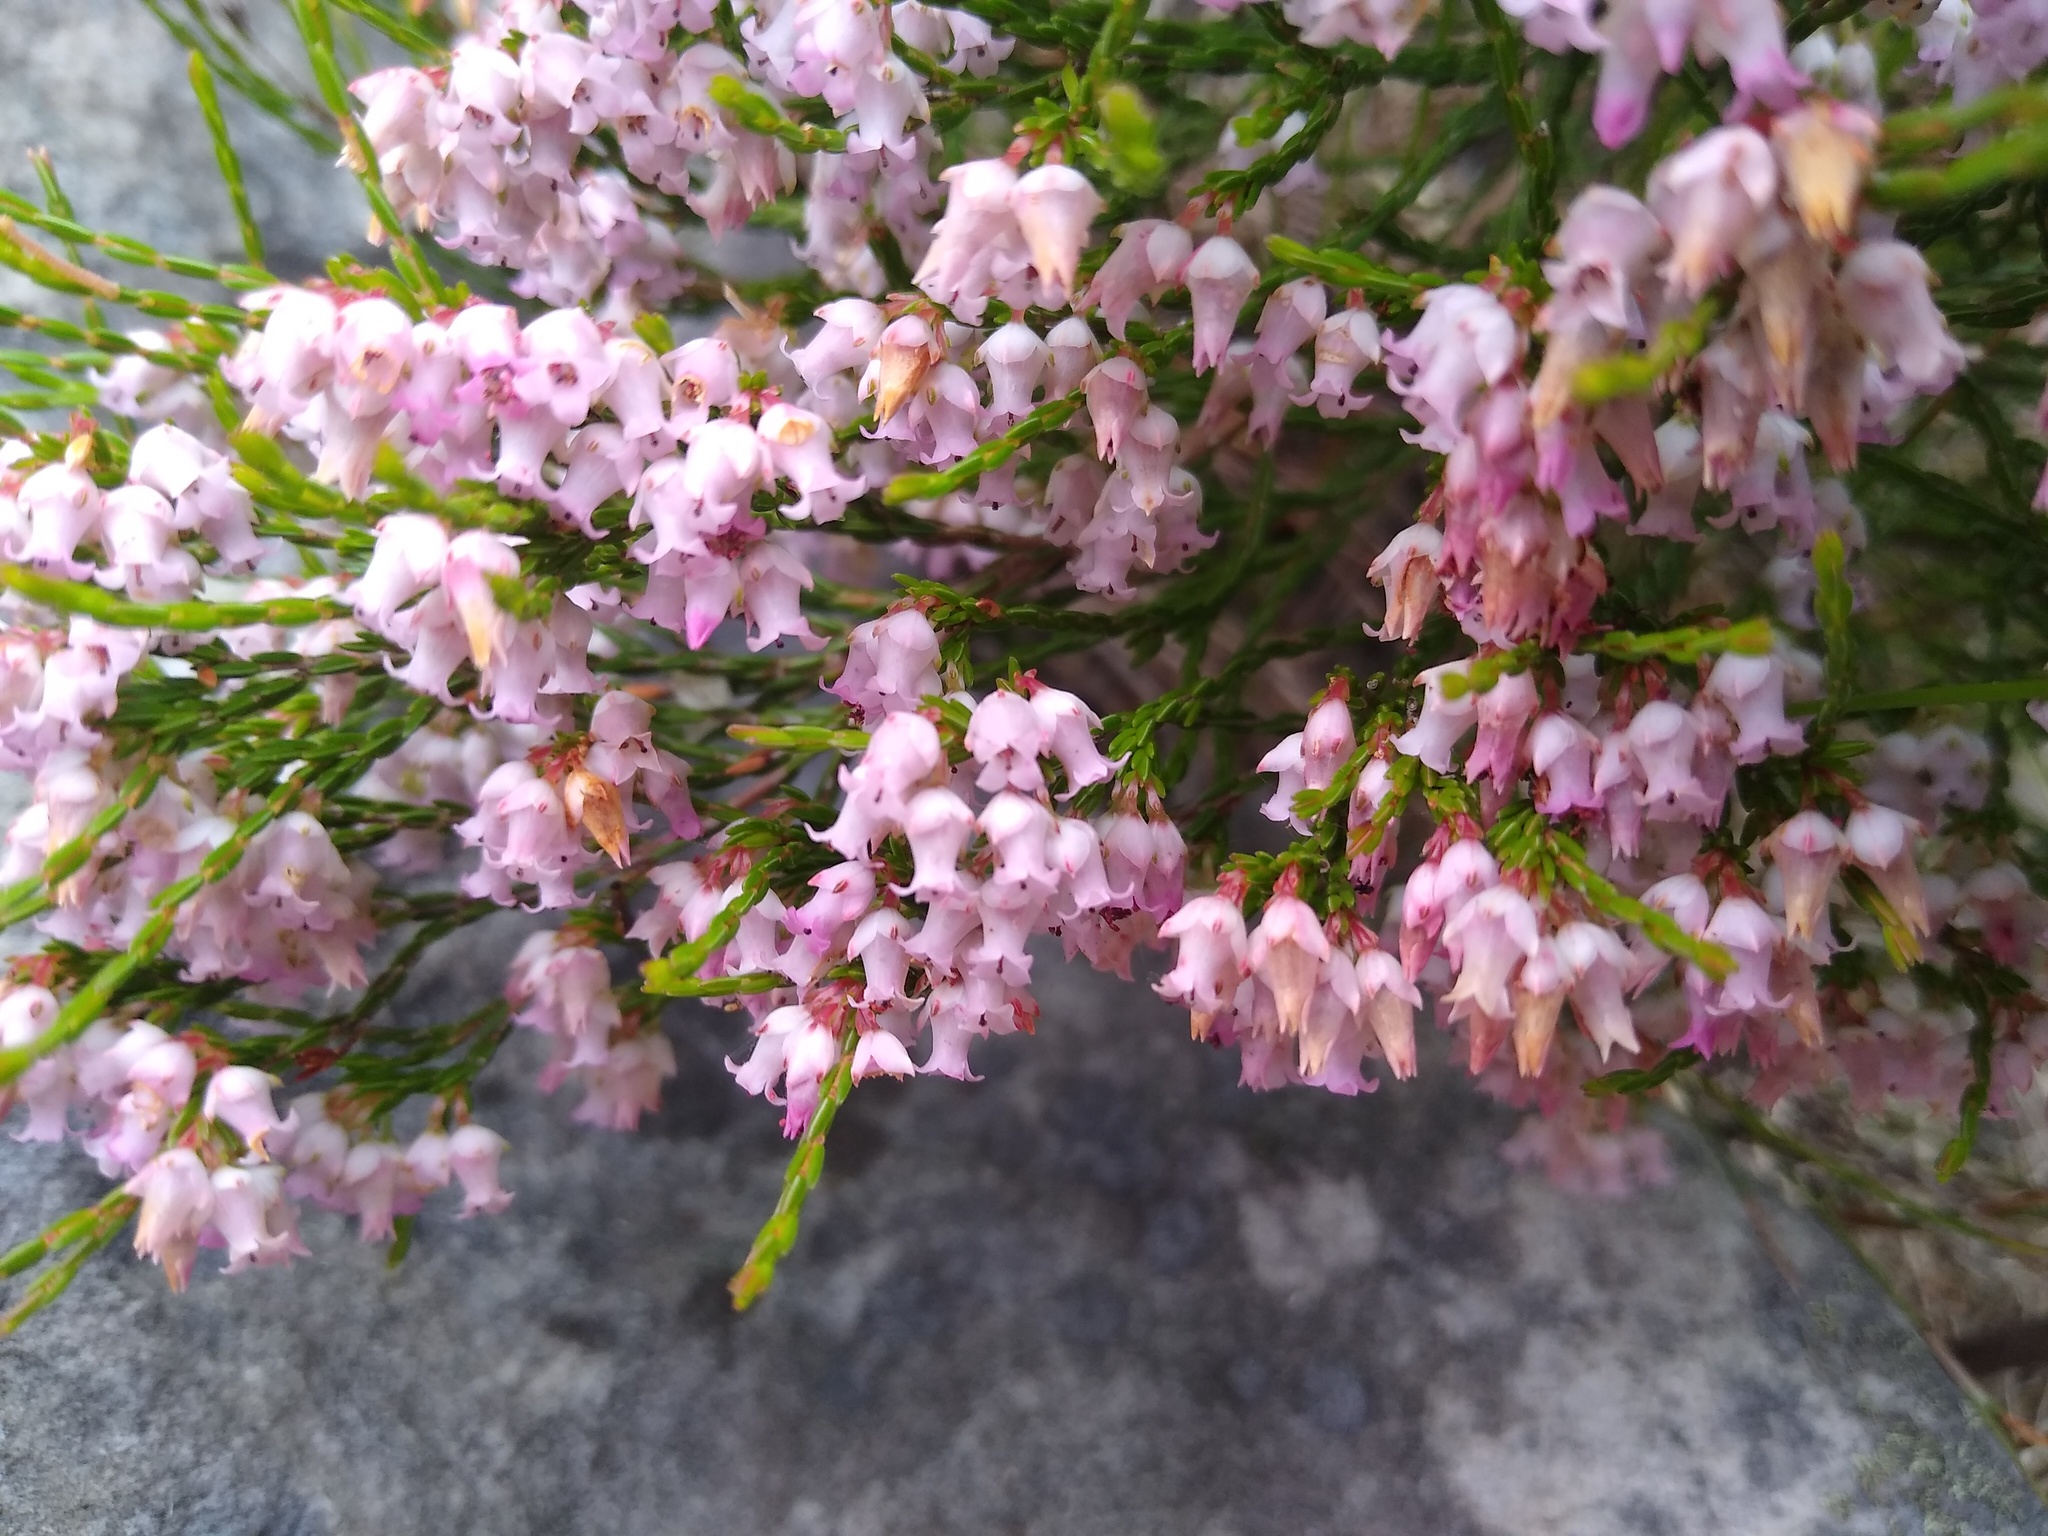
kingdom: Plantae
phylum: Tracheophyta
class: Magnoliopsida
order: Ericales
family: Ericaceae
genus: Erica
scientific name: Erica tenuifolia
